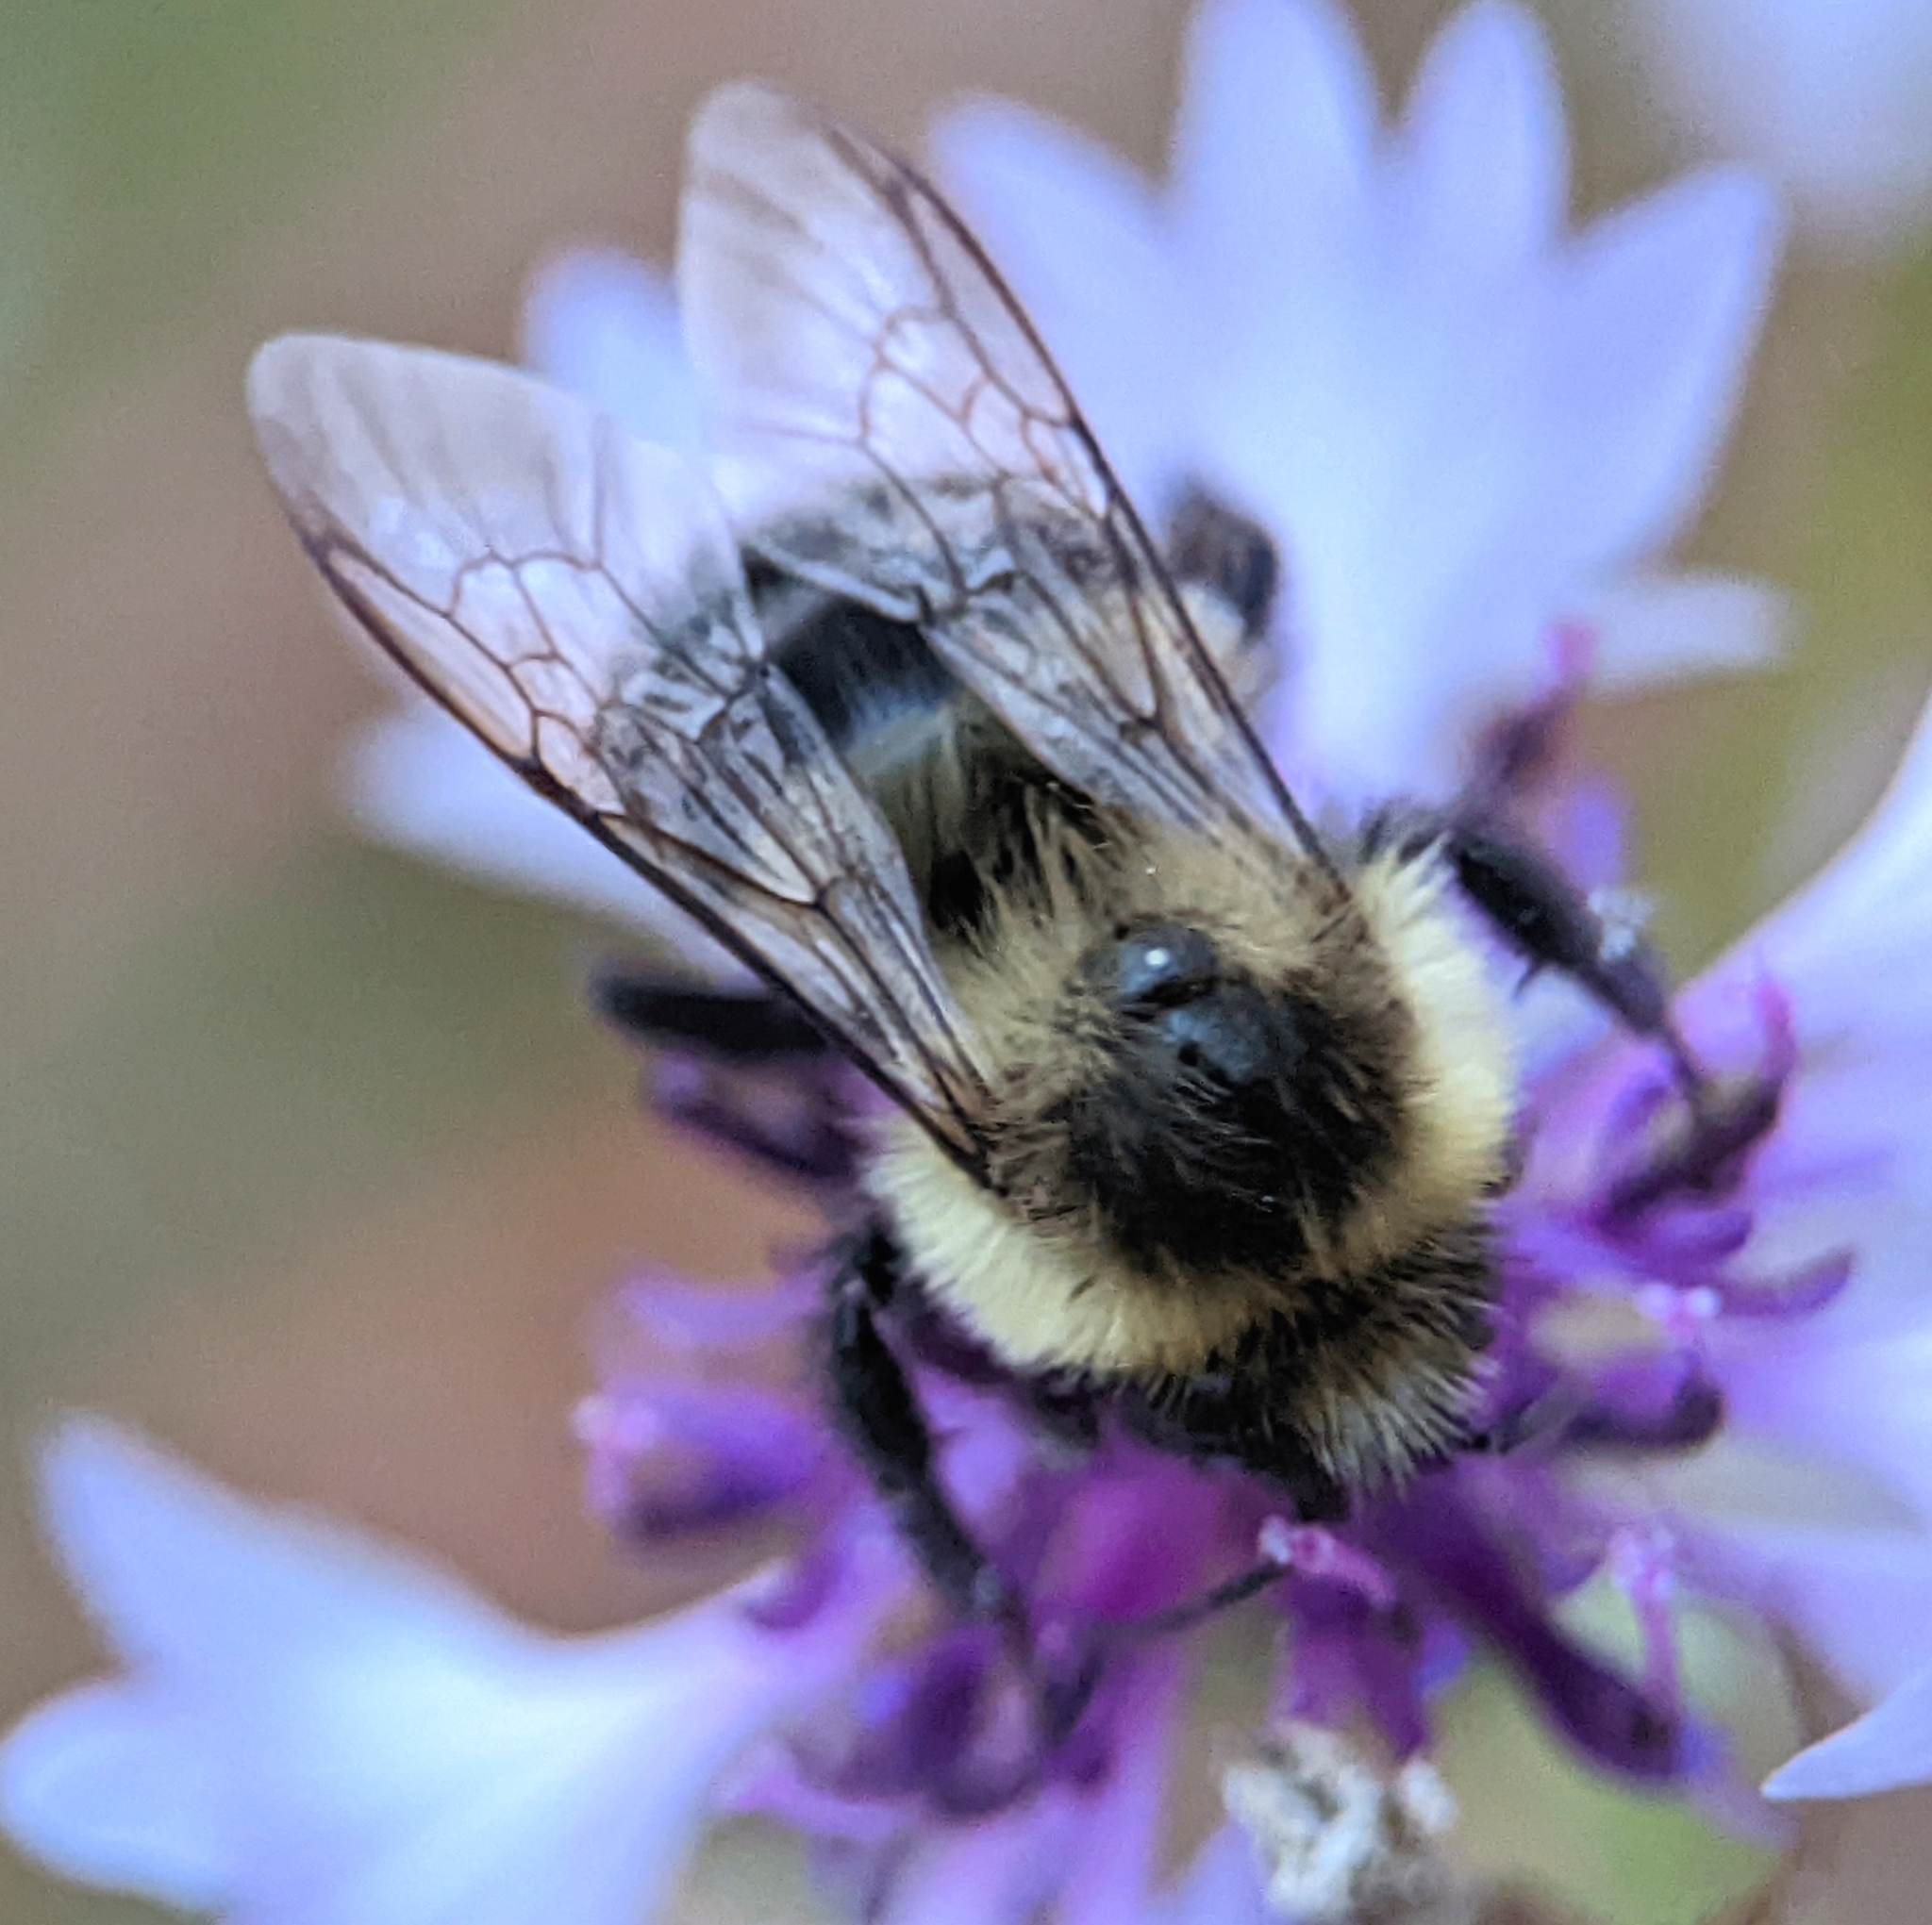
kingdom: Animalia
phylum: Arthropoda
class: Insecta
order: Hymenoptera
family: Apidae
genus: Bombus
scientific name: Bombus impatiens
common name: Common eastern bumble bee
